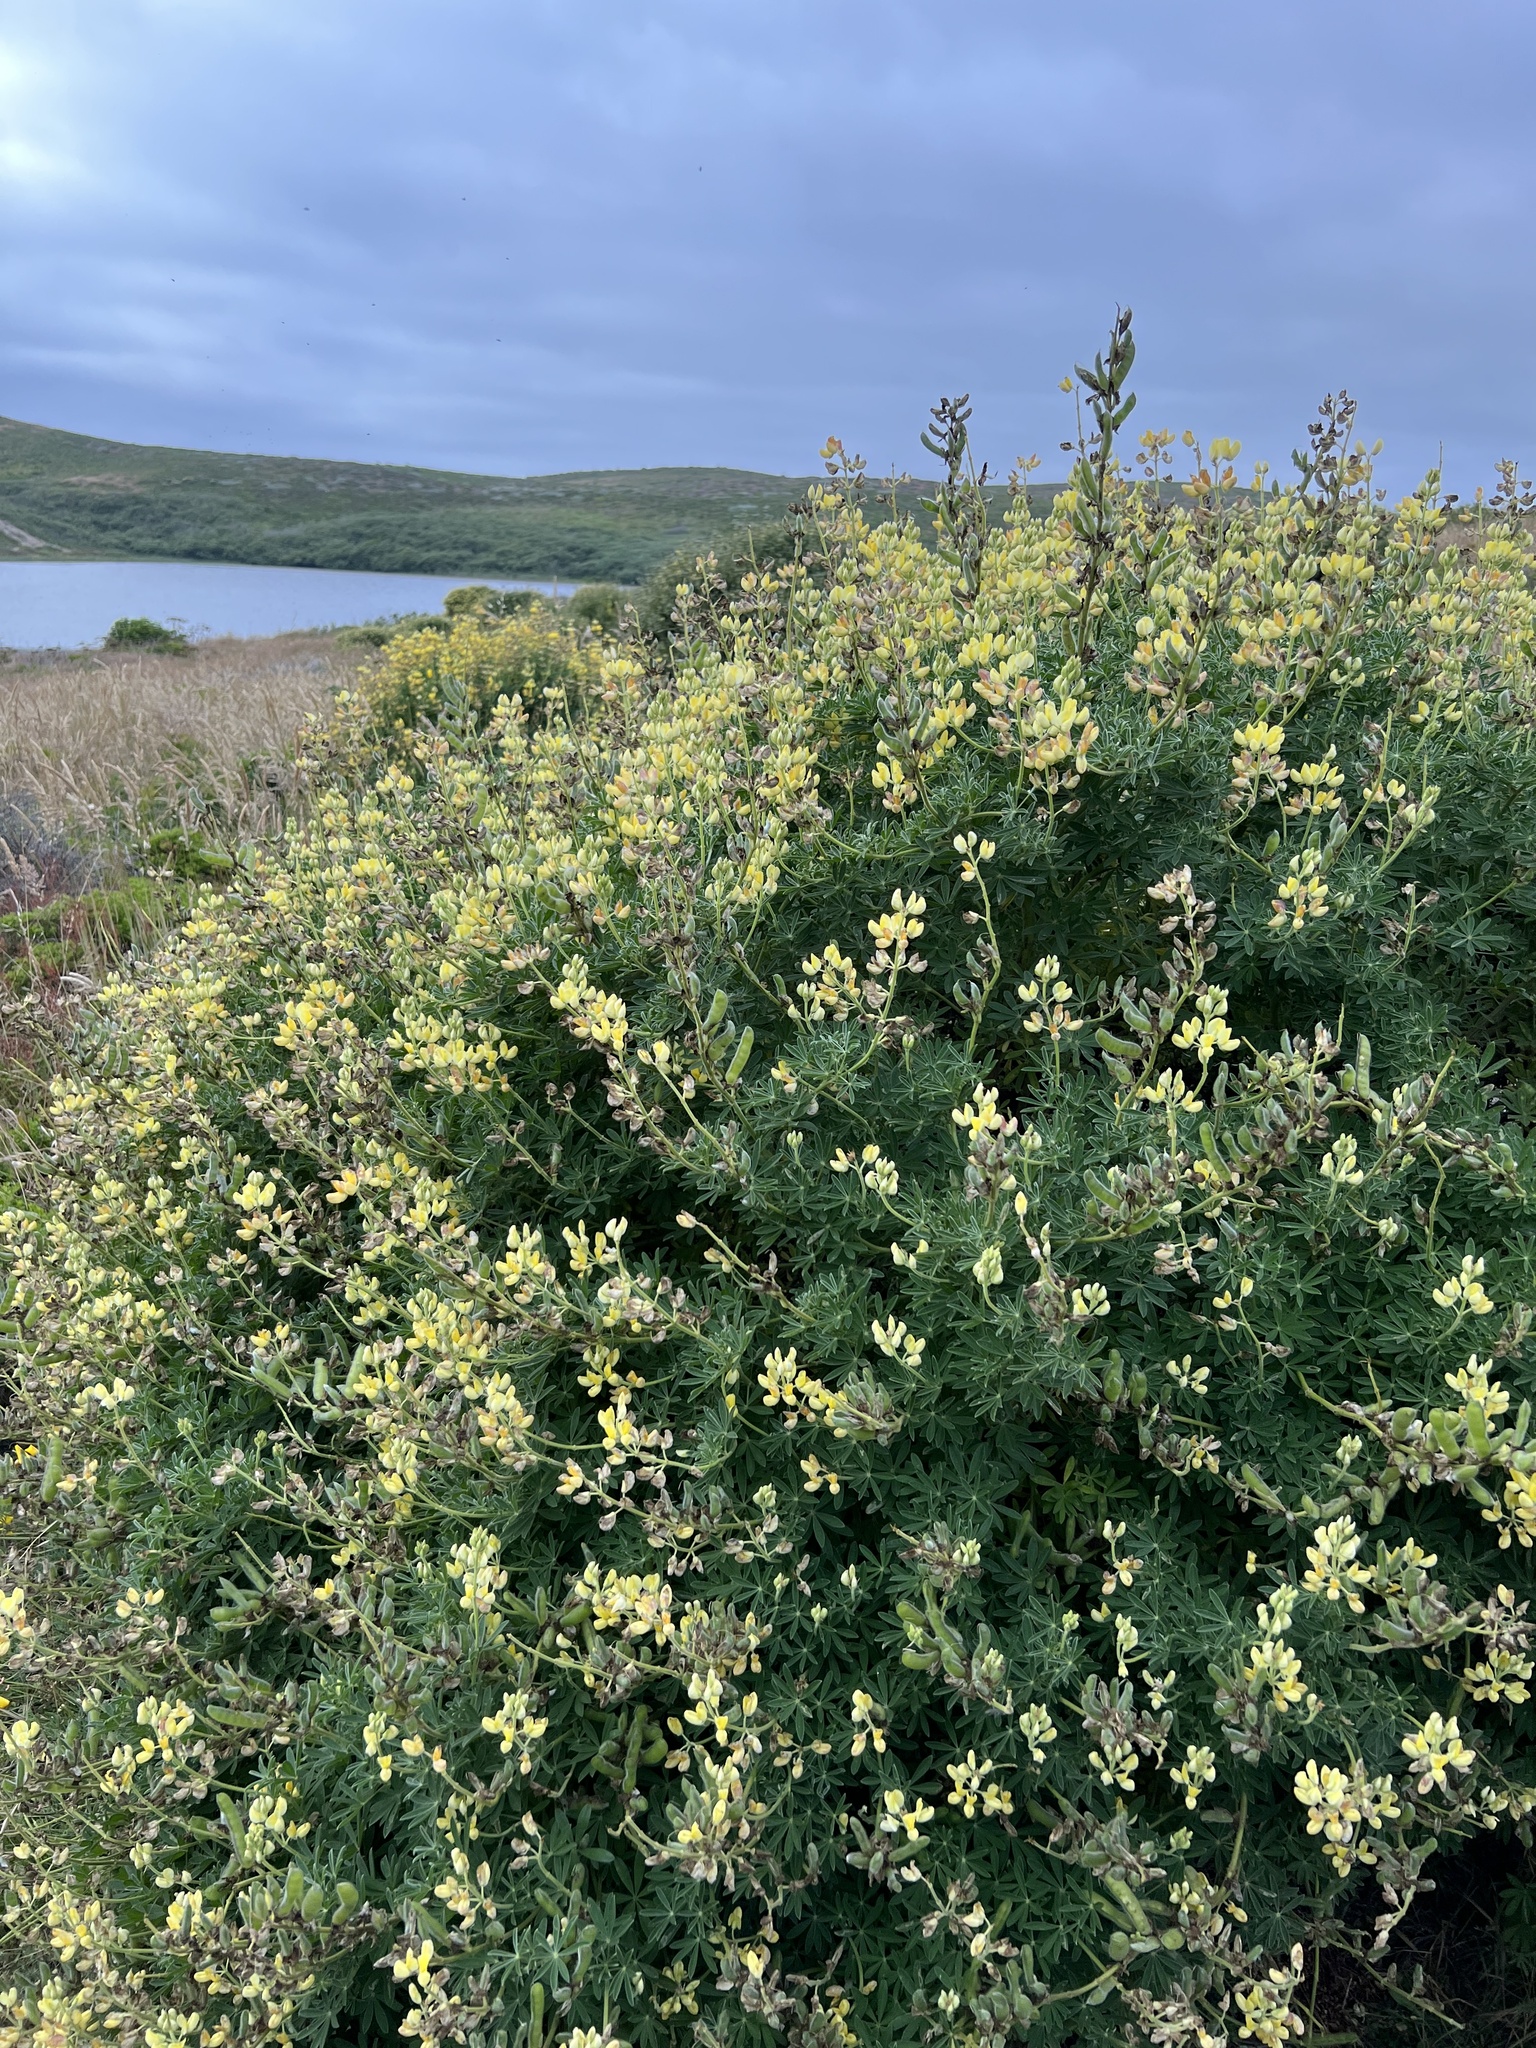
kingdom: Plantae
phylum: Tracheophyta
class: Magnoliopsida
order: Fabales
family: Fabaceae
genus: Lupinus
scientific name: Lupinus arboreus
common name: Yellow bush lupine
